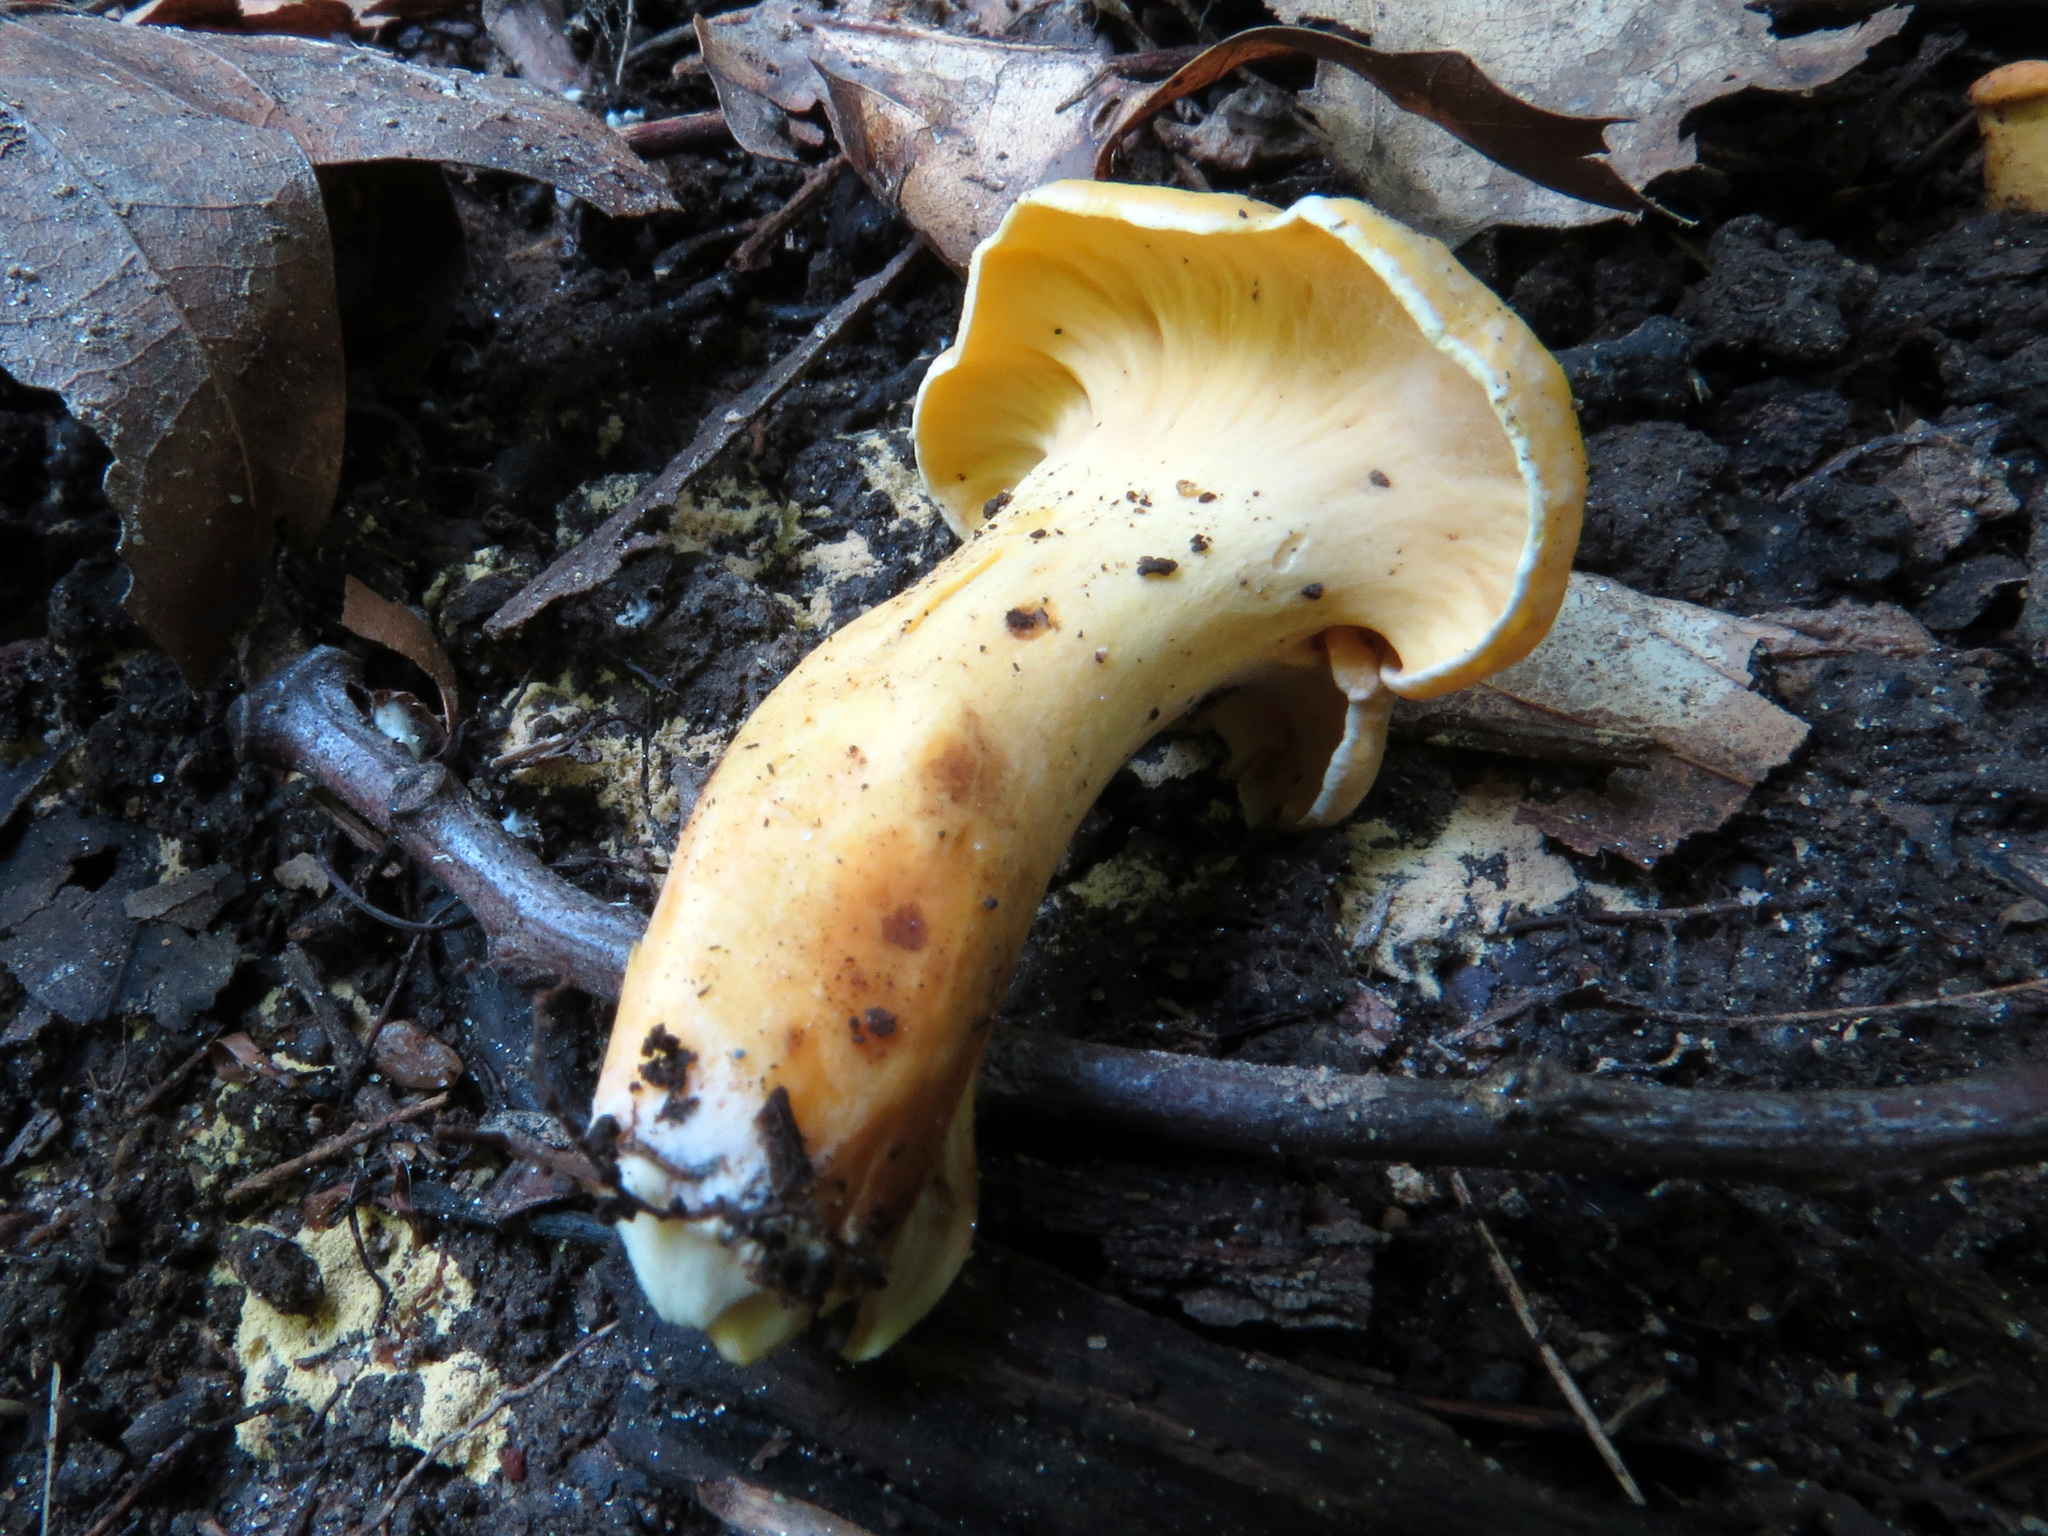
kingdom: Fungi
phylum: Basidiomycota
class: Agaricomycetes
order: Cantharellales
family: Hydnaceae
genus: Cantharellus
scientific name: Cantharellus lateritius
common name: Smooth chanterelle
